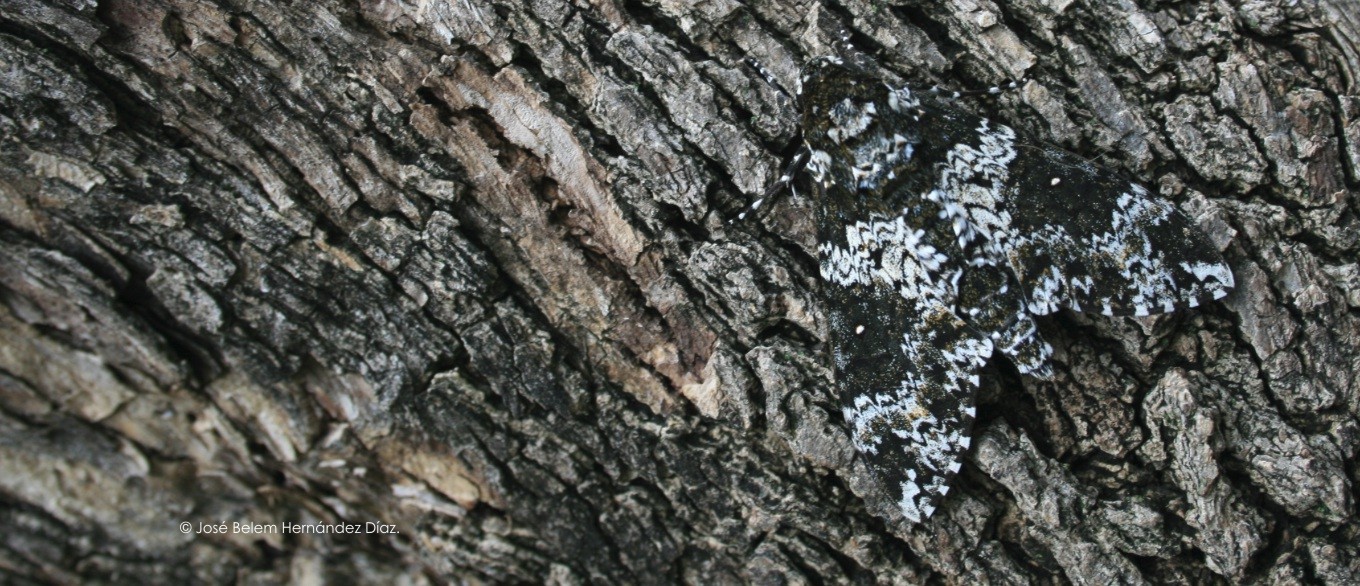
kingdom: Animalia
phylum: Arthropoda
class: Insecta
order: Lepidoptera
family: Sphingidae
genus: Manduca
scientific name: Manduca rustica
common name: Rustic sphinx
